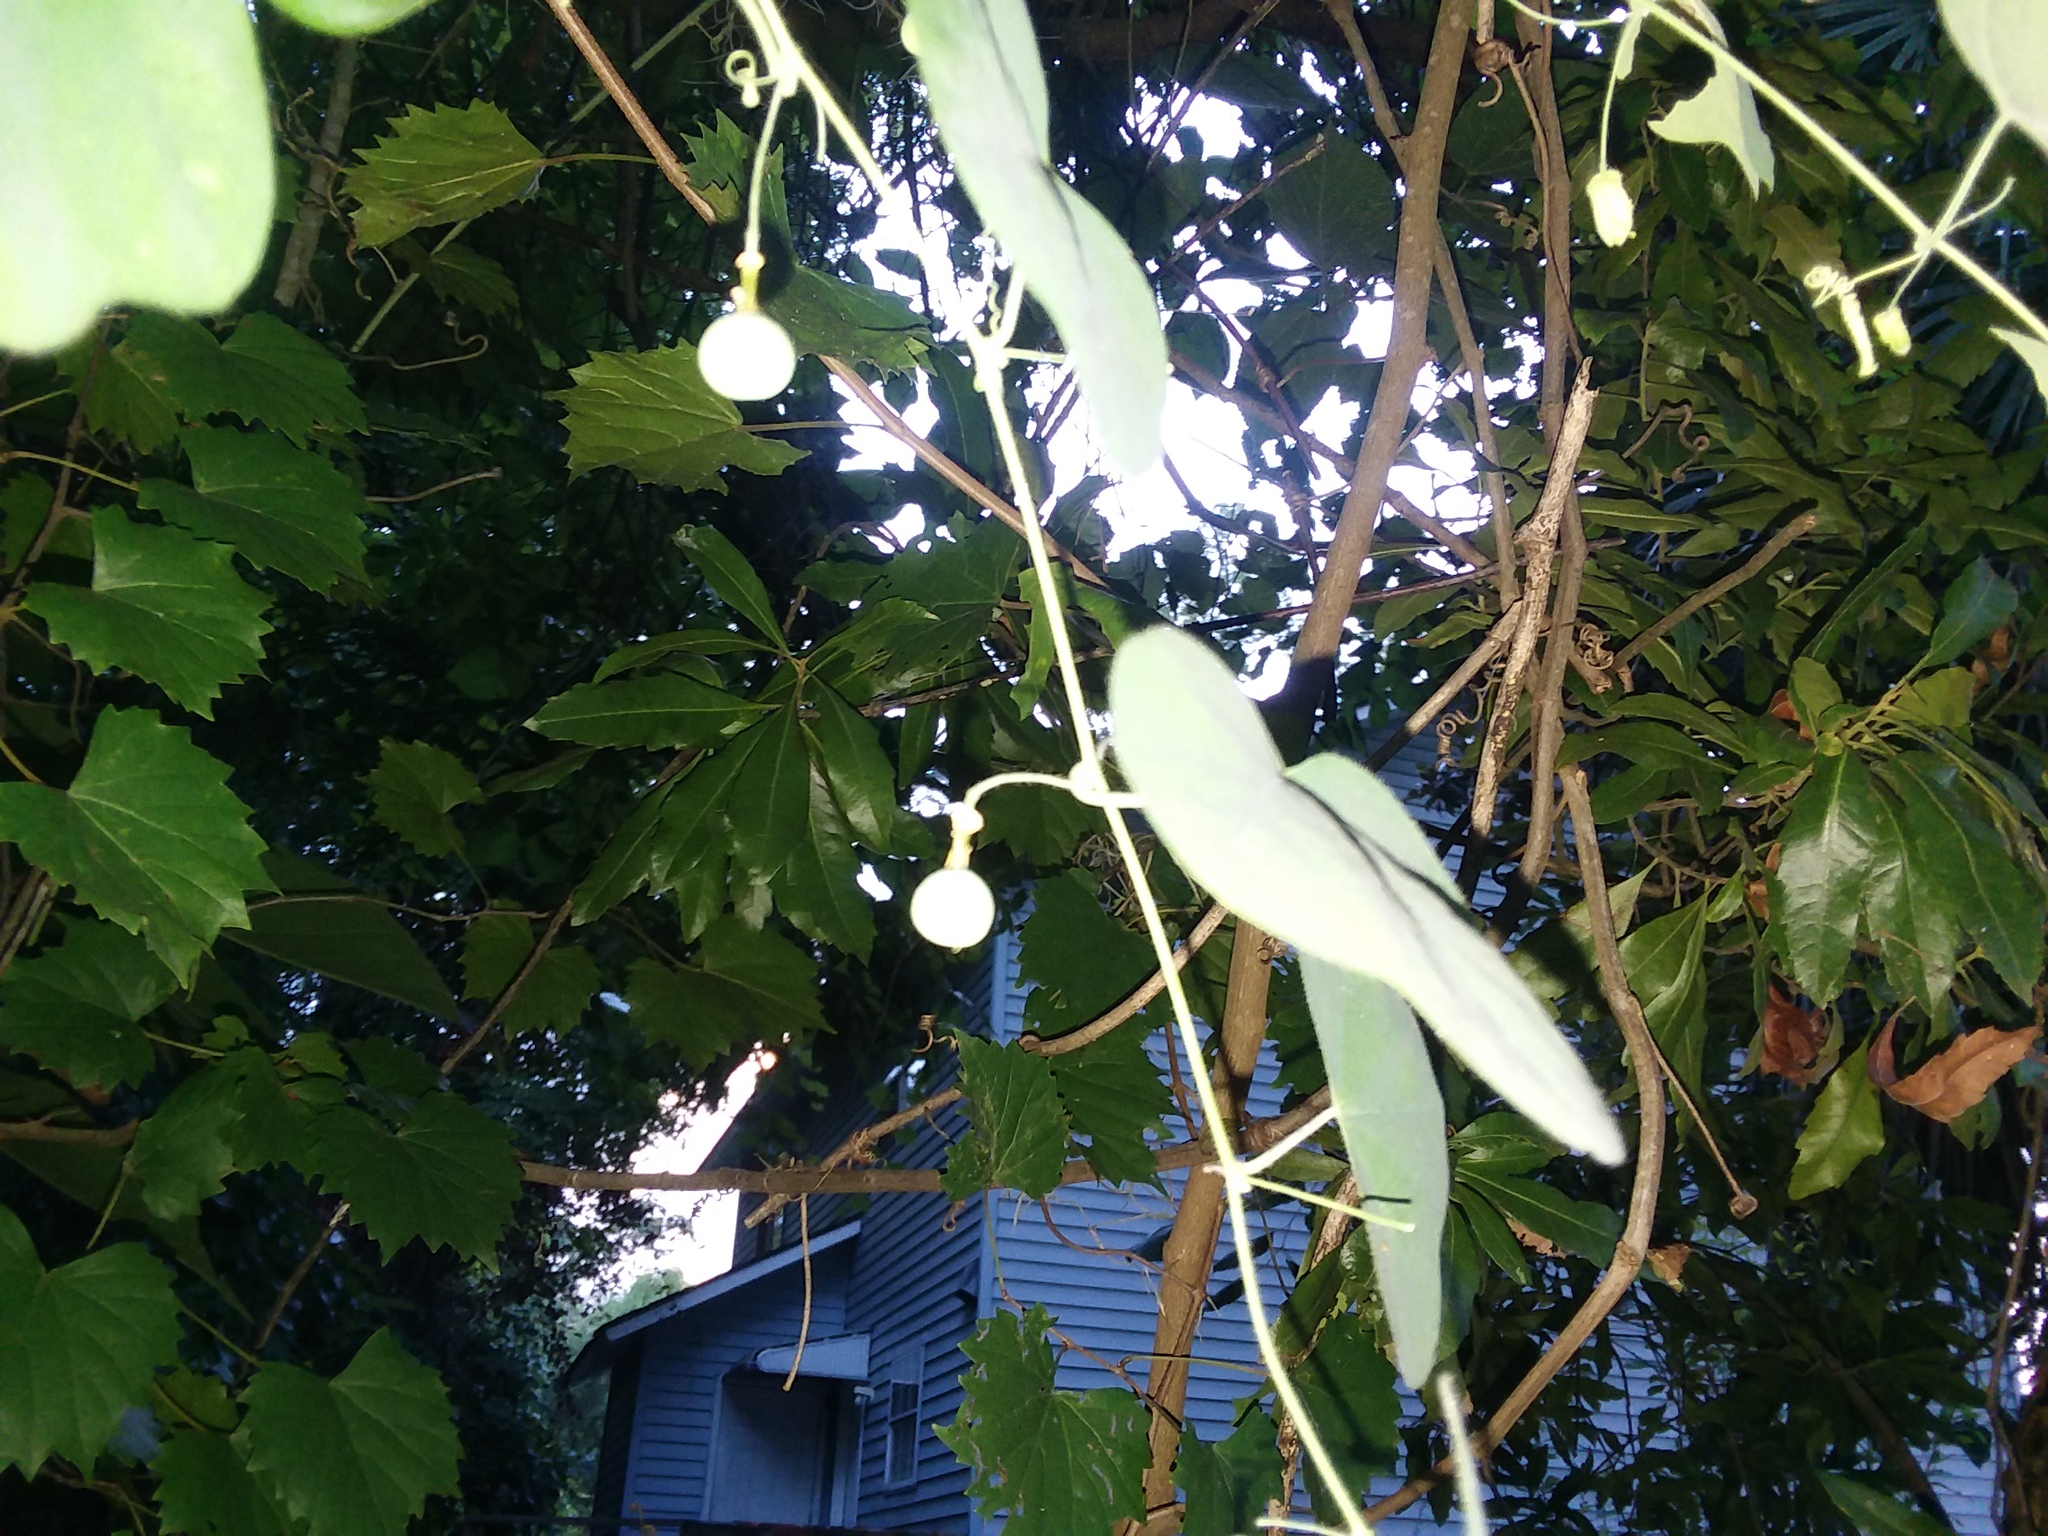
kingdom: Plantae
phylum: Tracheophyta
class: Magnoliopsida
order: Malpighiales
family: Passifloraceae
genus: Passiflora
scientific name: Passiflora lutea
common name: Yellow passionflower
